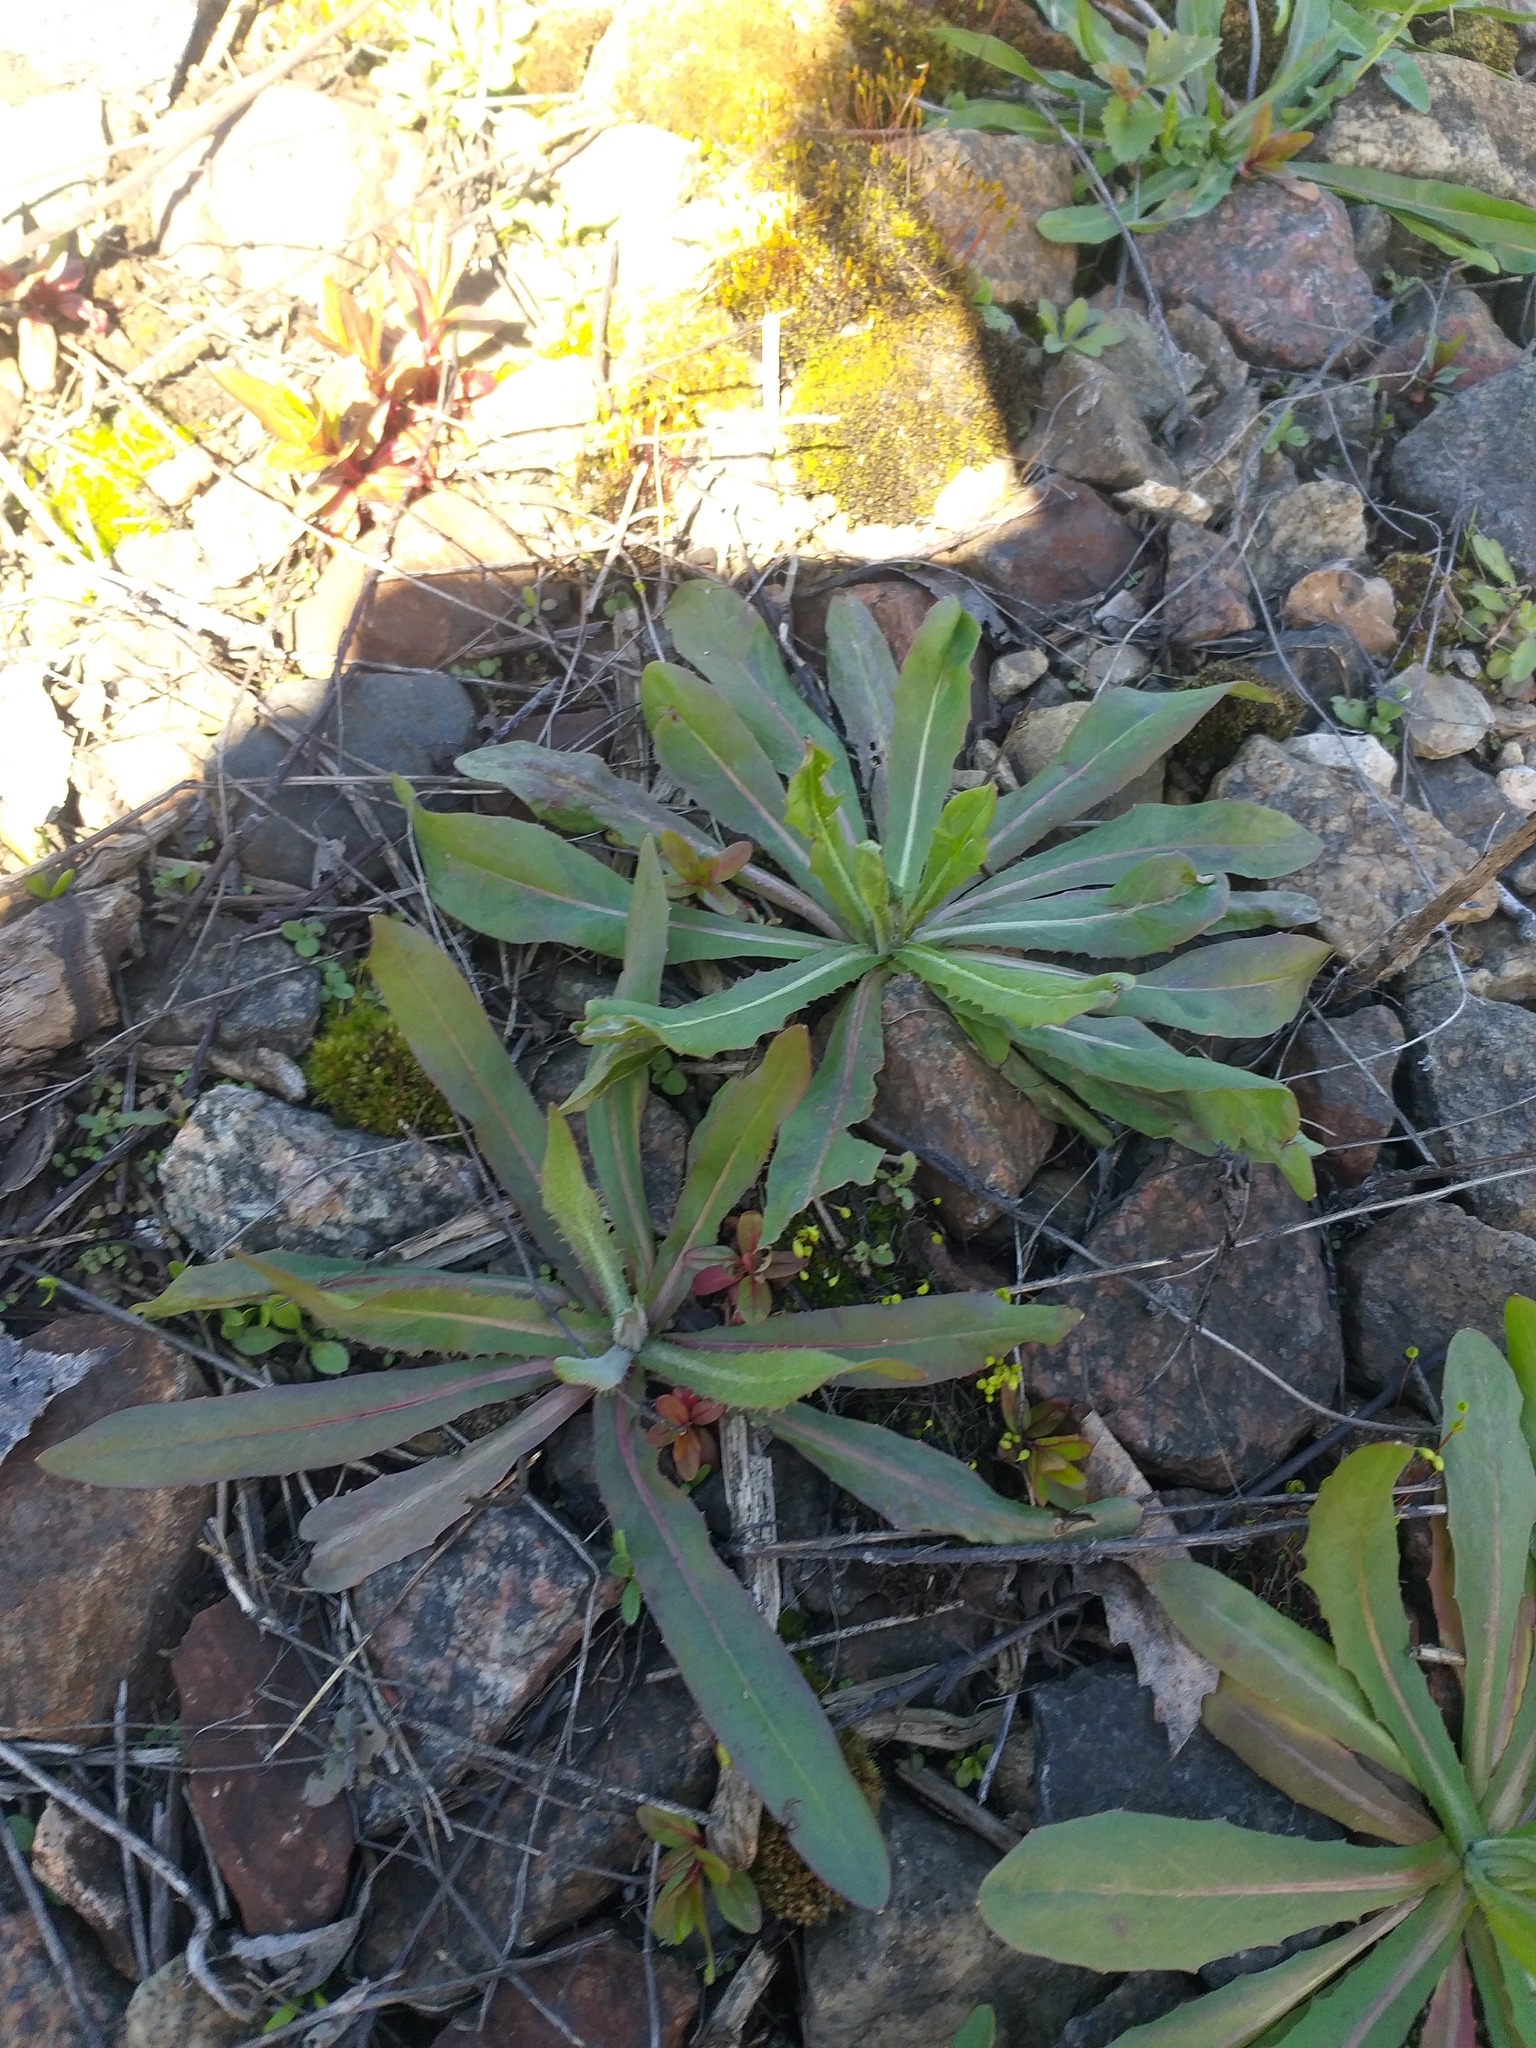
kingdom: Plantae
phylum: Tracheophyta
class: Magnoliopsida
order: Asterales
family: Asteraceae
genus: Crepis
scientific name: Crepis tectorum
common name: Narrow-leaved hawk's-beard
